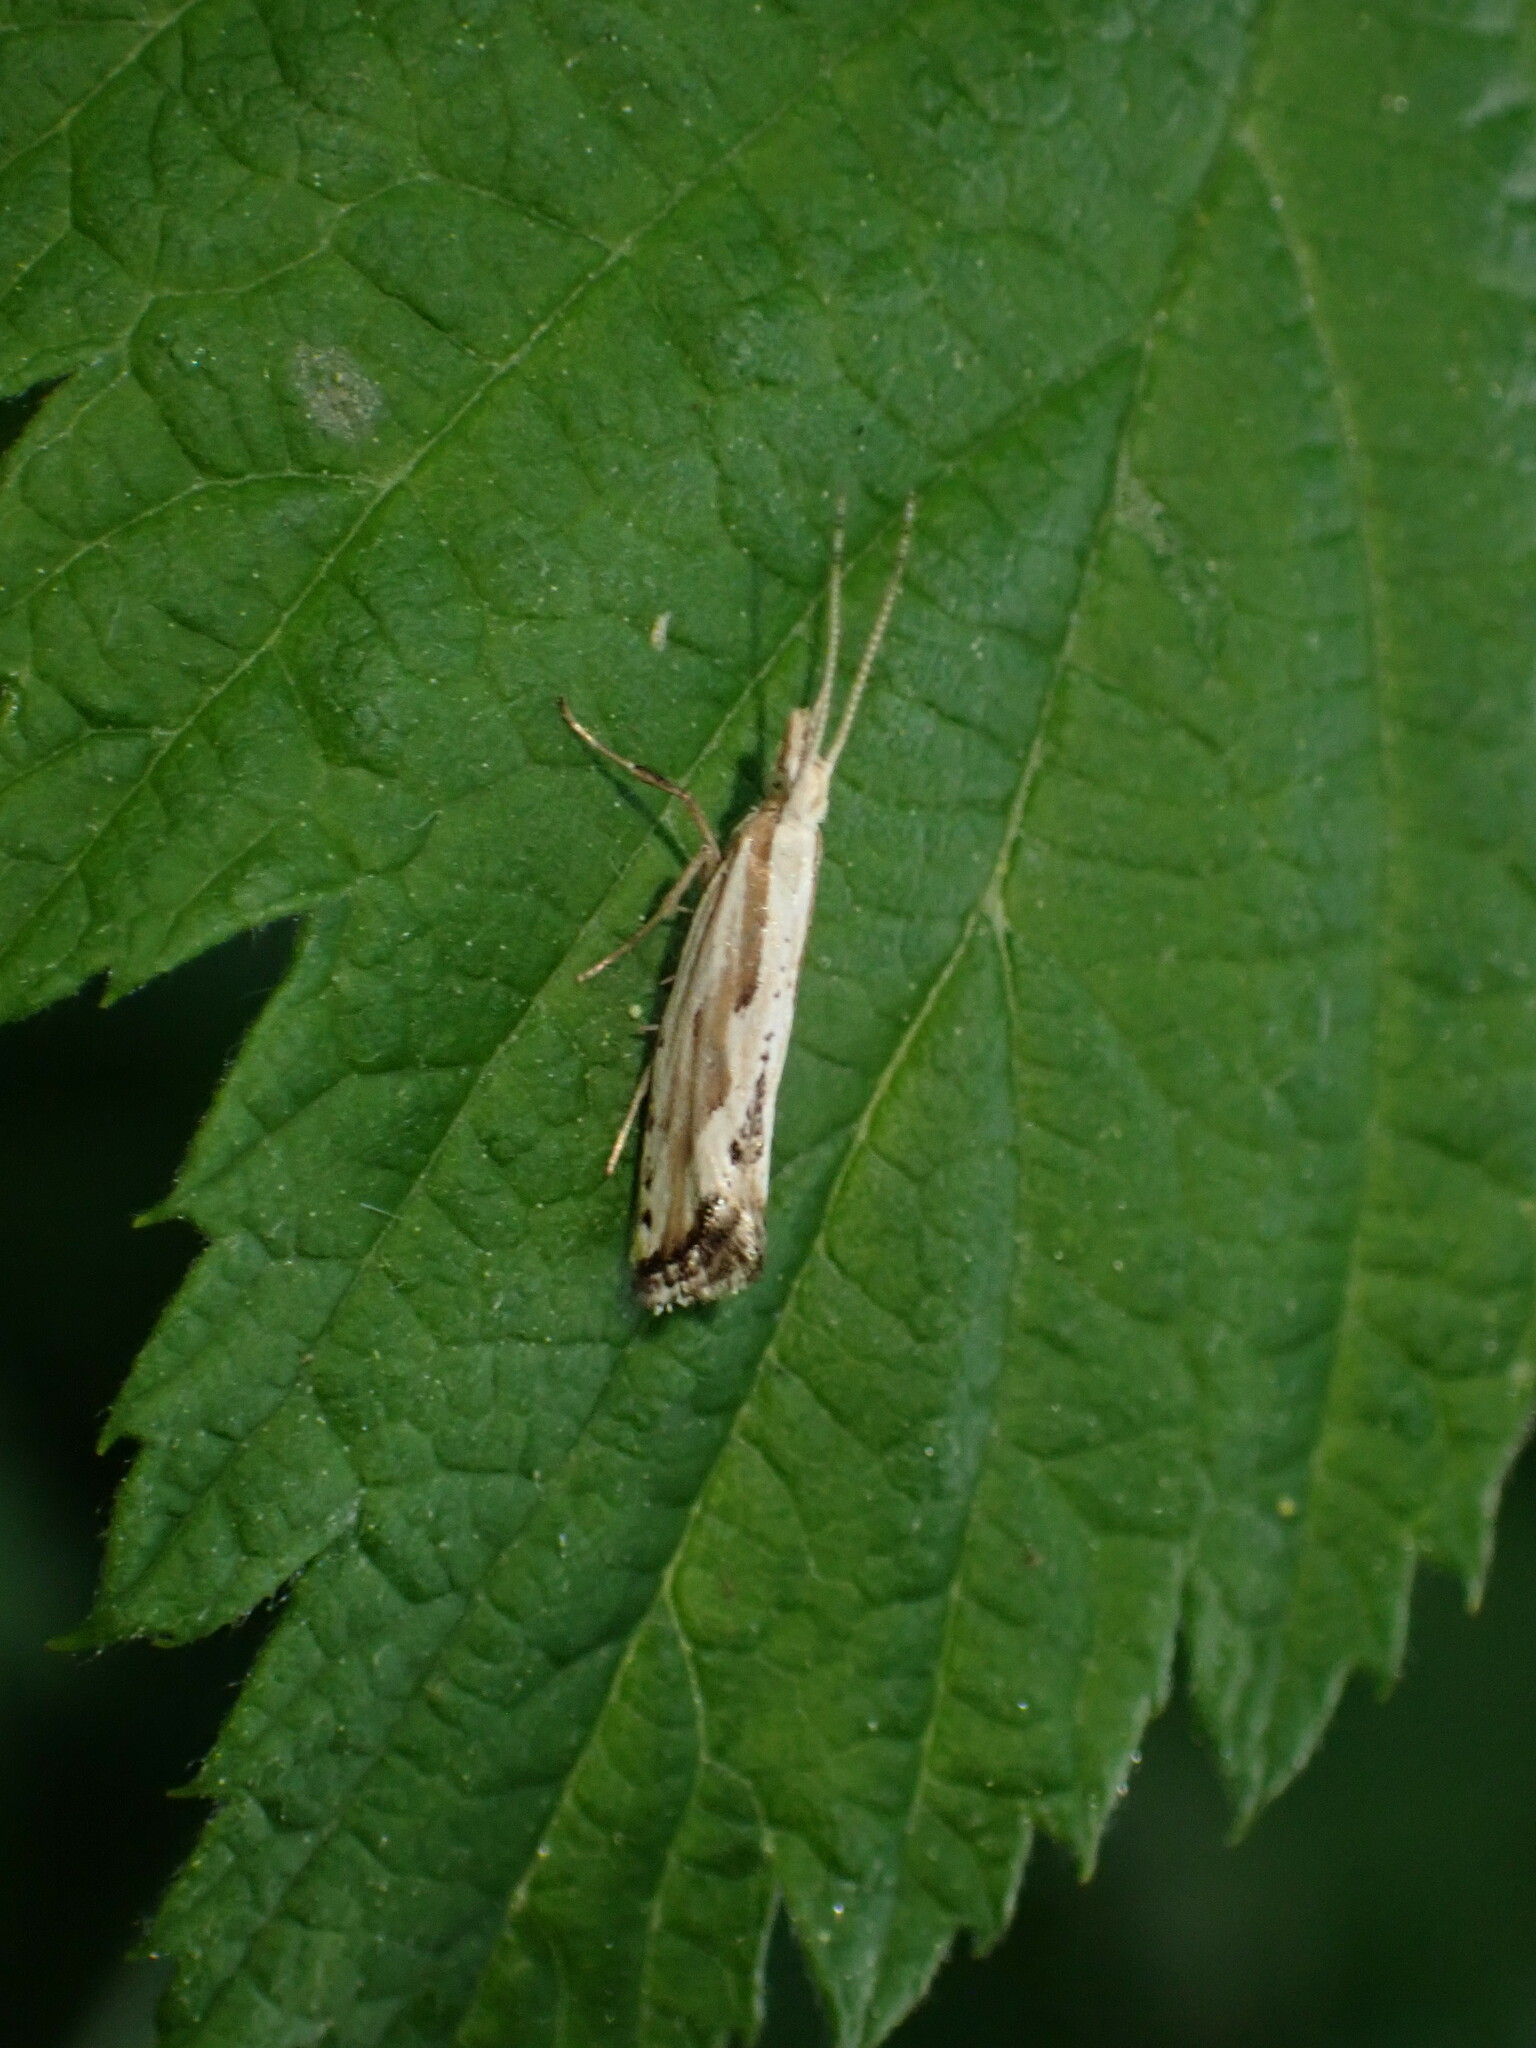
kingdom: Animalia
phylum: Arthropoda
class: Insecta
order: Lepidoptera
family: Plutellidae
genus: Plutella
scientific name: Plutella porrectella
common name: Dame's rocket moth
